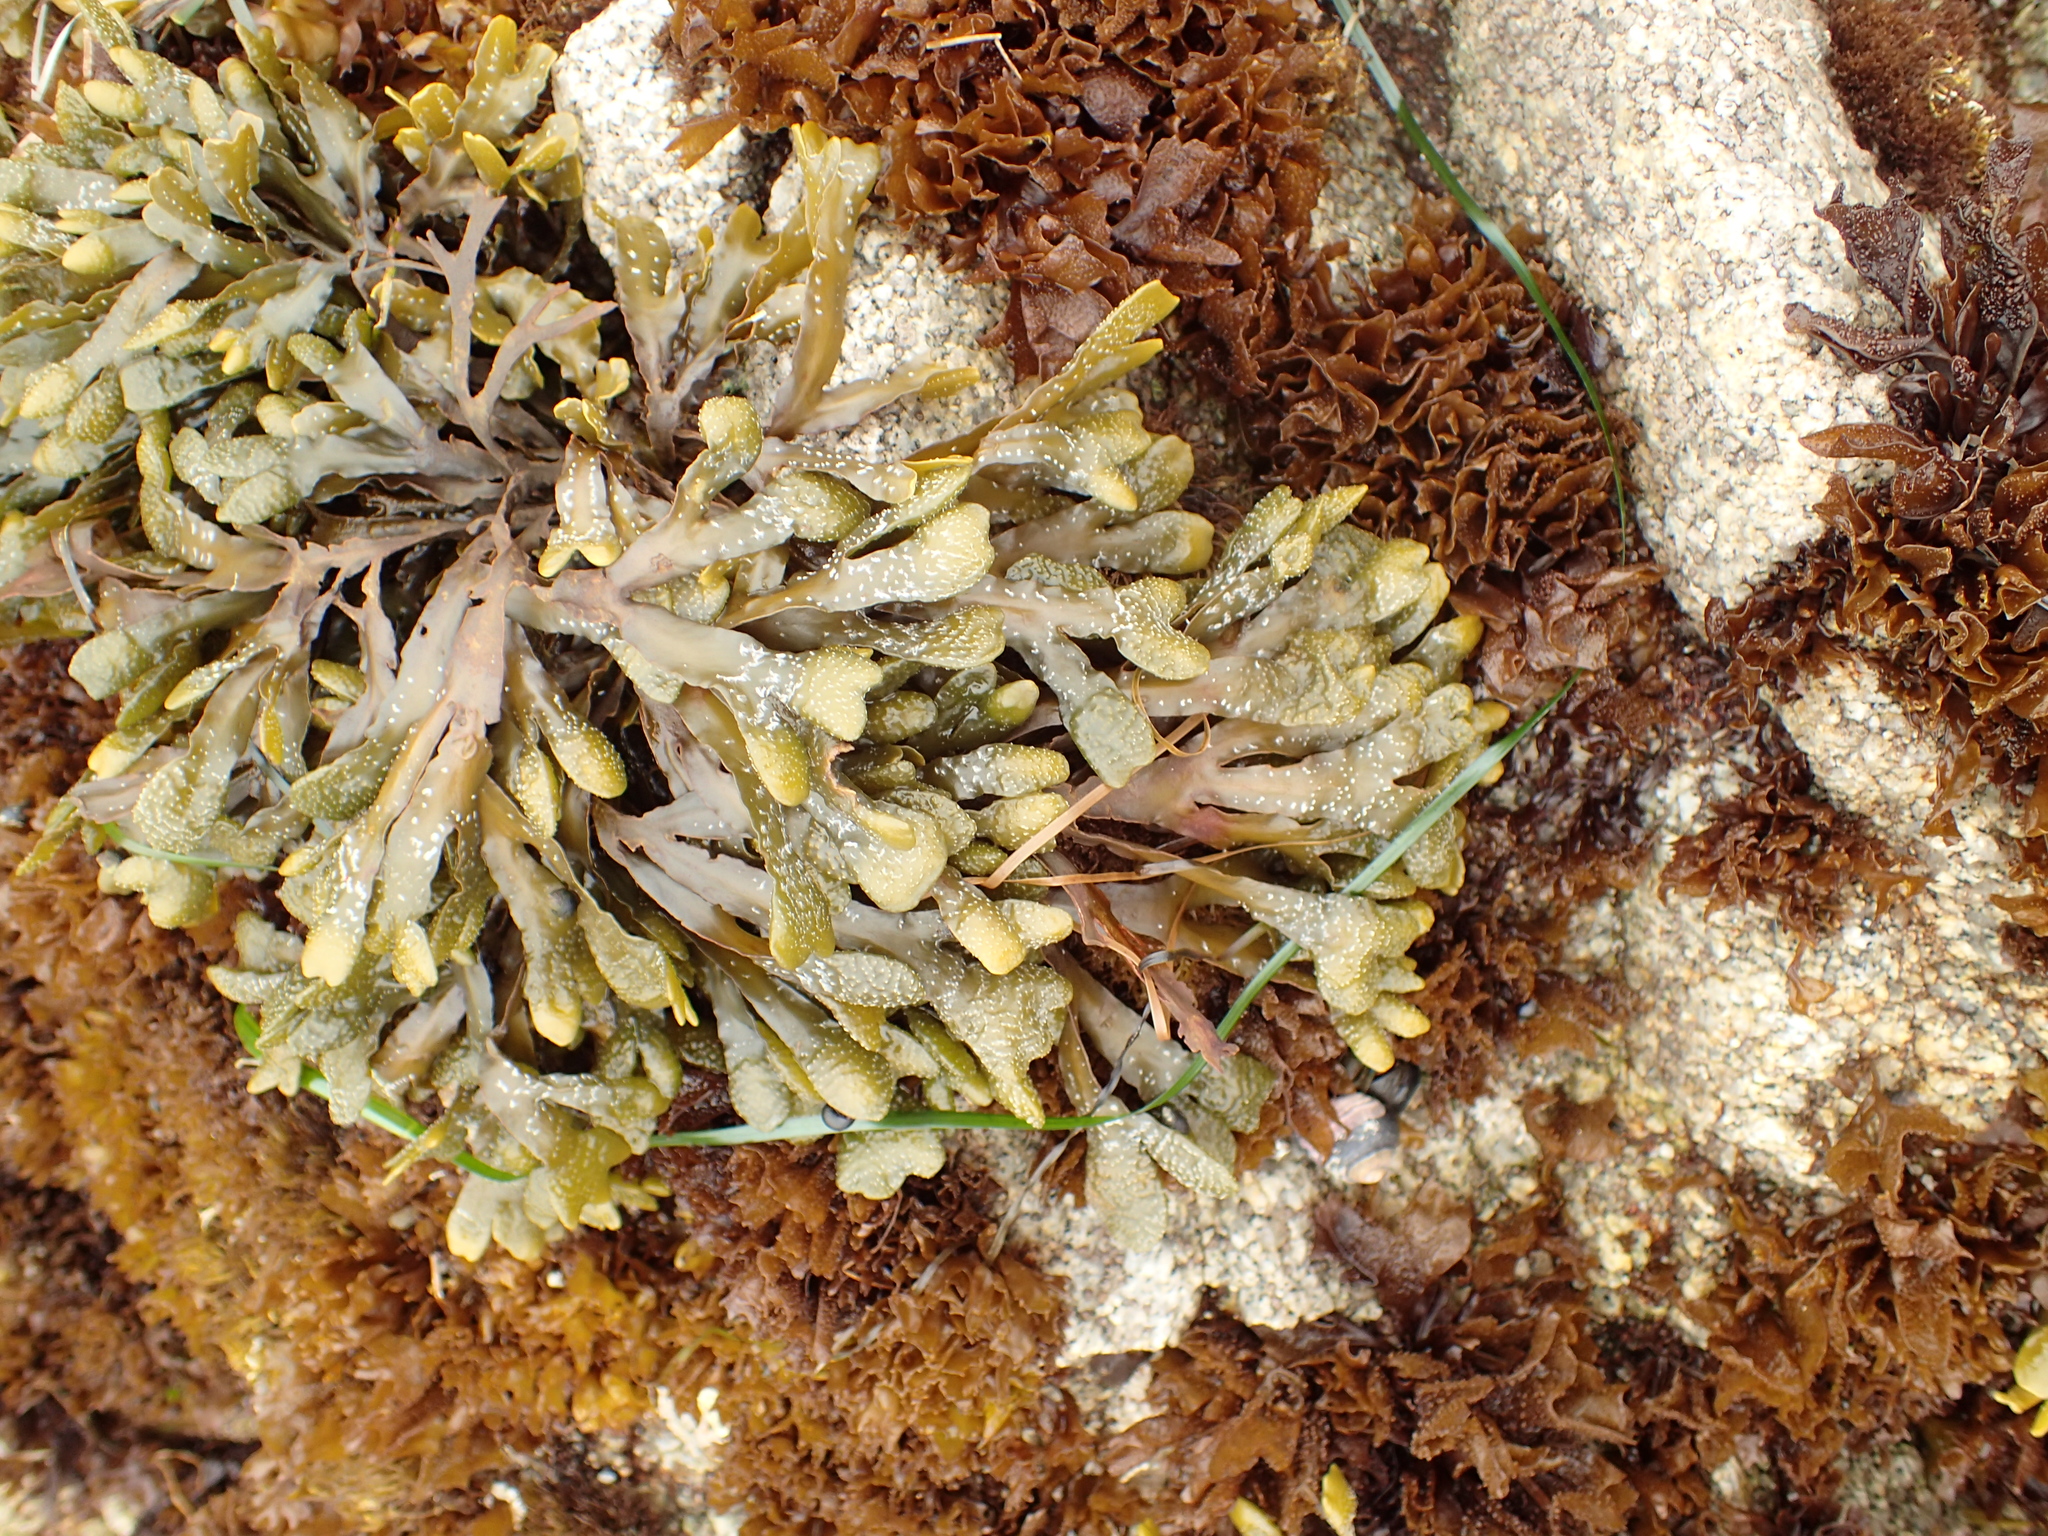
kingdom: Chromista
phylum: Ochrophyta
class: Phaeophyceae
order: Fucales
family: Fucaceae
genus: Pelvetiopsis
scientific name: Pelvetiopsis
